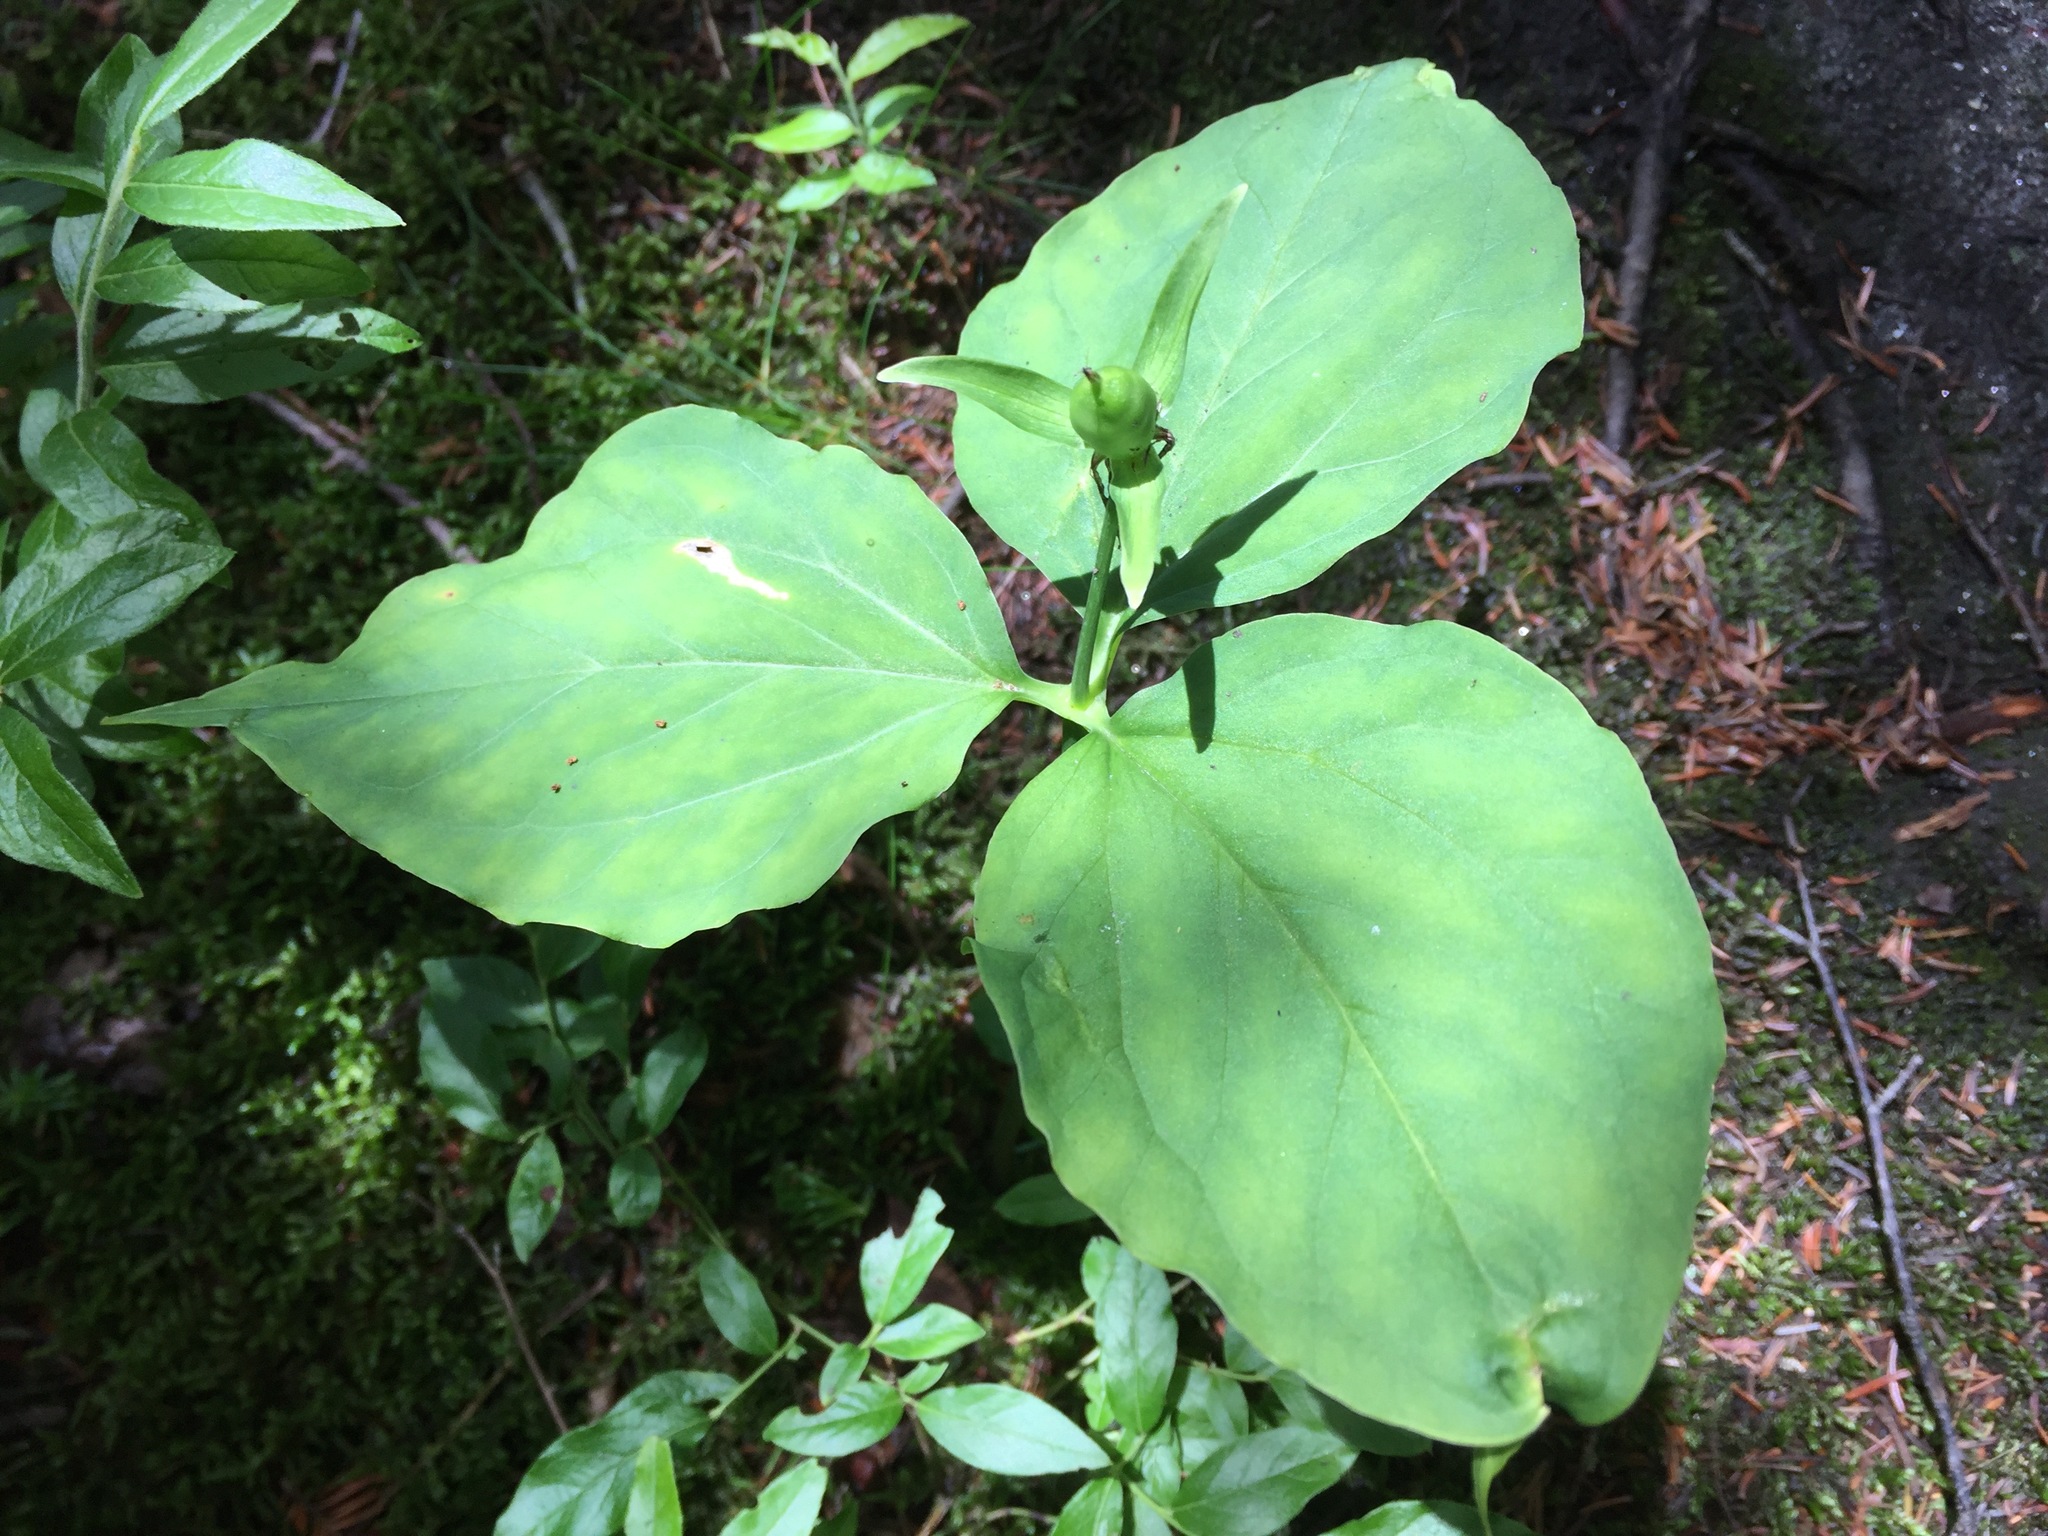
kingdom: Plantae
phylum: Tracheophyta
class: Liliopsida
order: Liliales
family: Melanthiaceae
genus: Trillium
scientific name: Trillium undulatum
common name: Paint trillium
